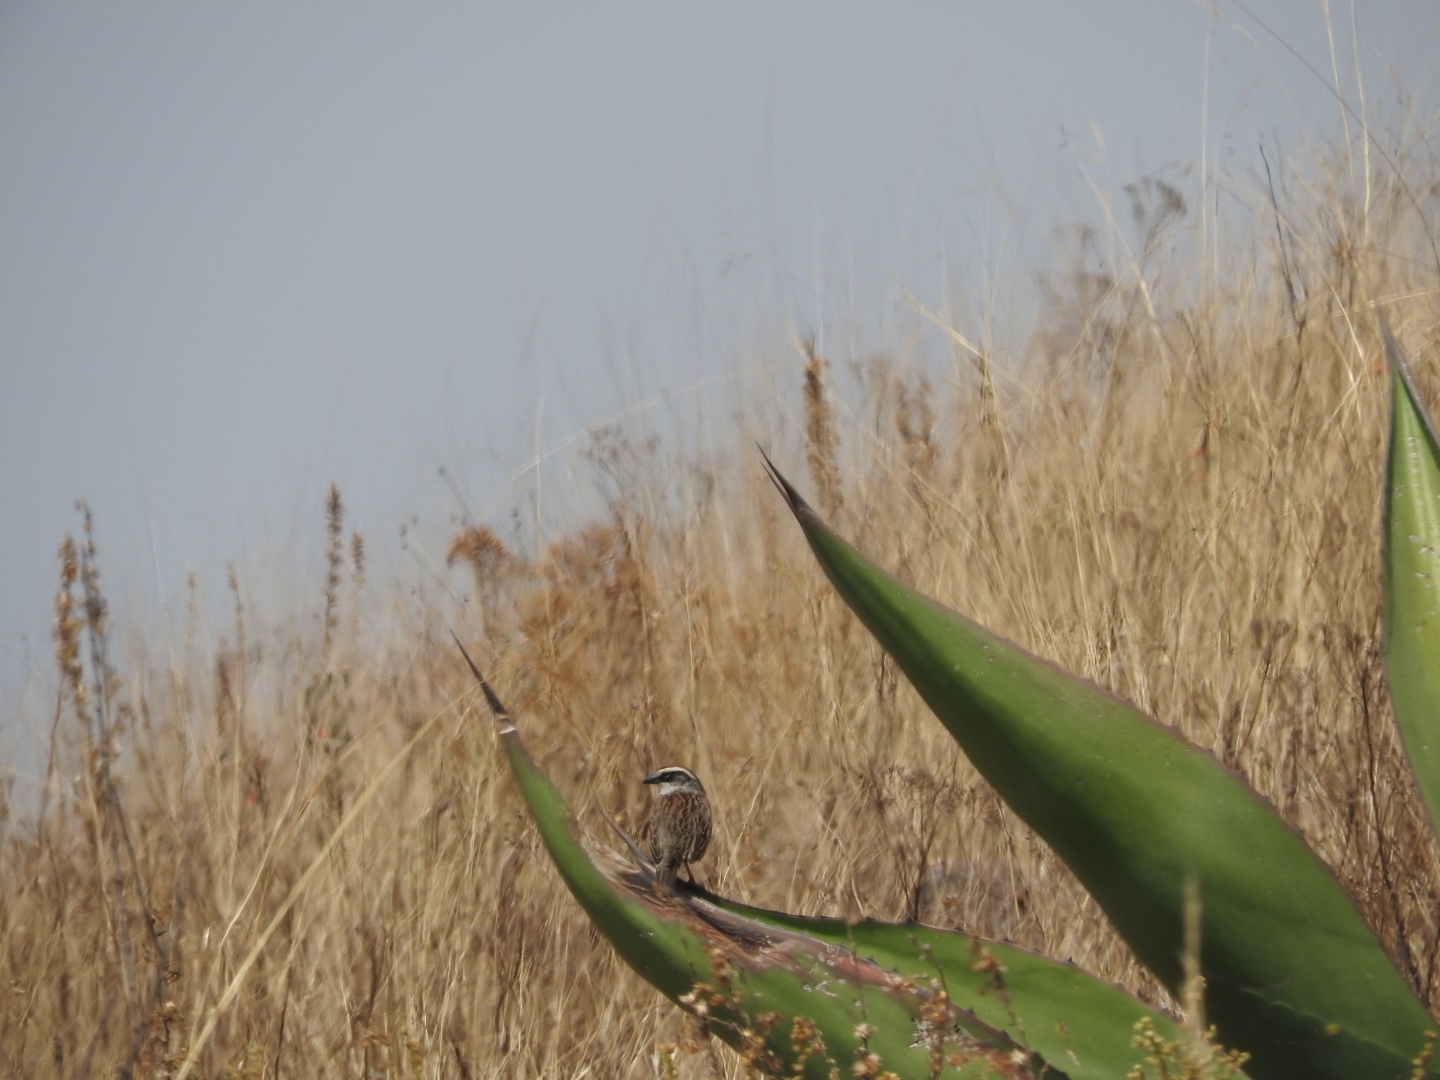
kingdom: Animalia
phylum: Chordata
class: Aves
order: Passeriformes
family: Passerellidae
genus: Oriturus
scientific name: Oriturus superciliosus
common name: Striped sparrow
